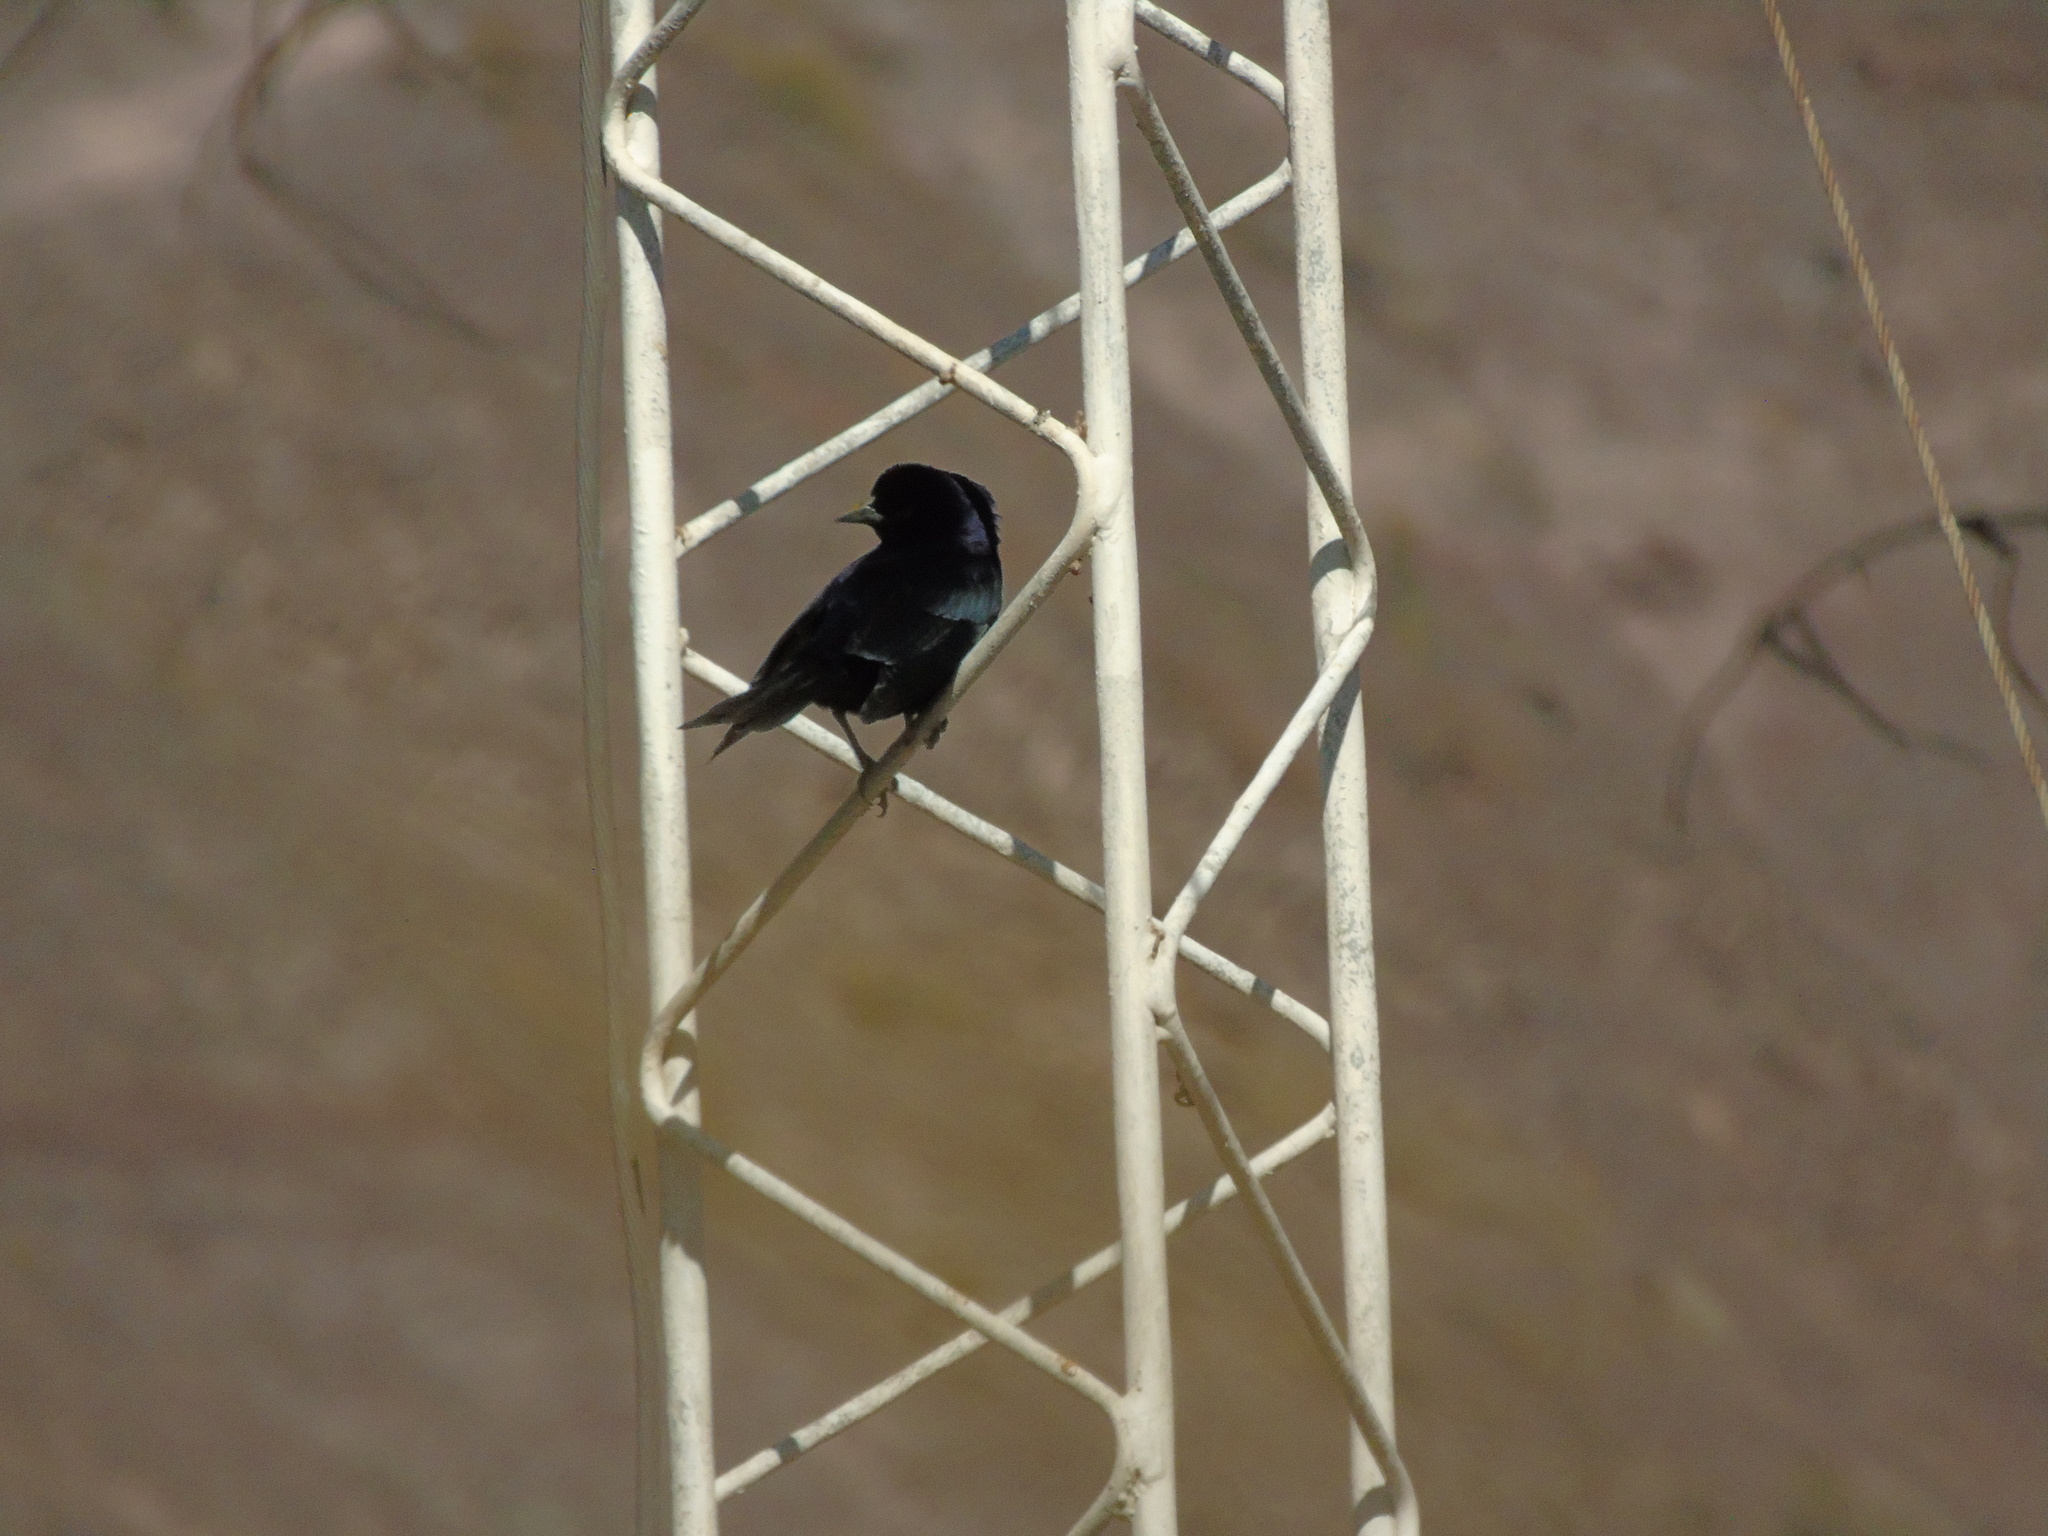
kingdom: Animalia
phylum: Chordata
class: Aves
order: Passeriformes
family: Icteridae
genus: Molothrus
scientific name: Molothrus bonariensis
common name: Shiny cowbird
